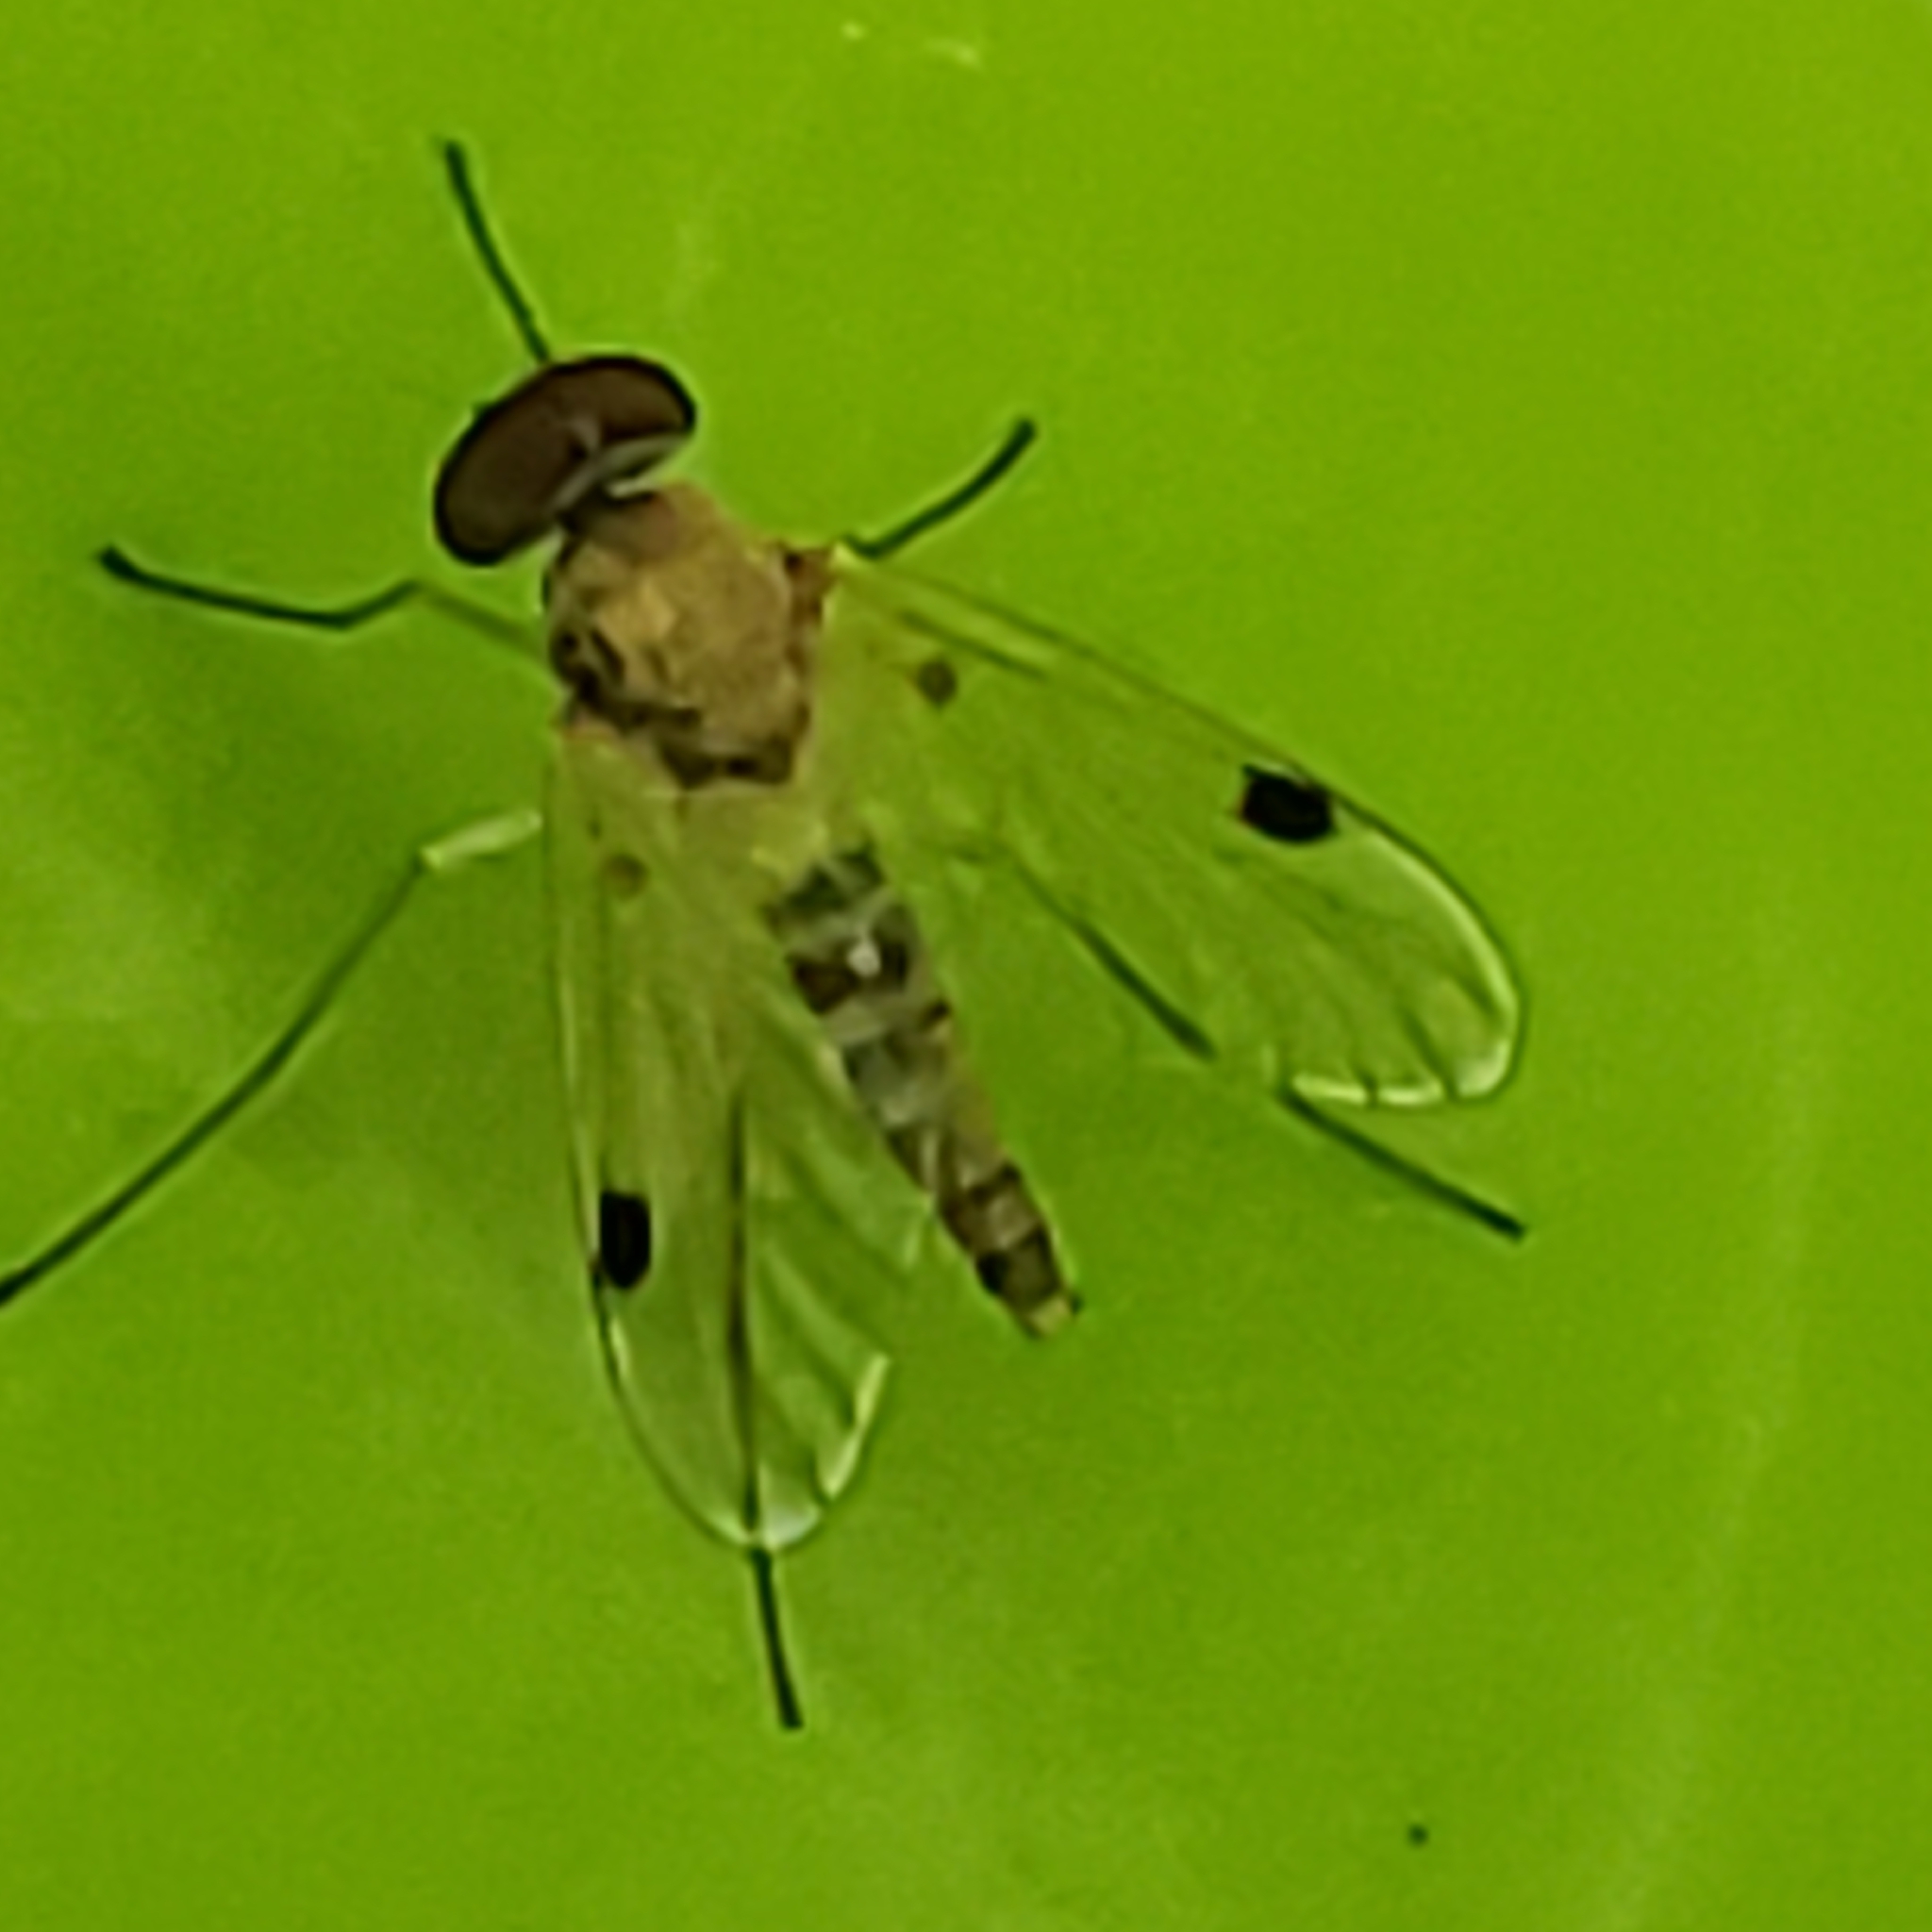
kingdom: Animalia
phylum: Arthropoda
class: Insecta
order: Diptera
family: Rhagionidae
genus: Chrysopilus
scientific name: Chrysopilus modestus
